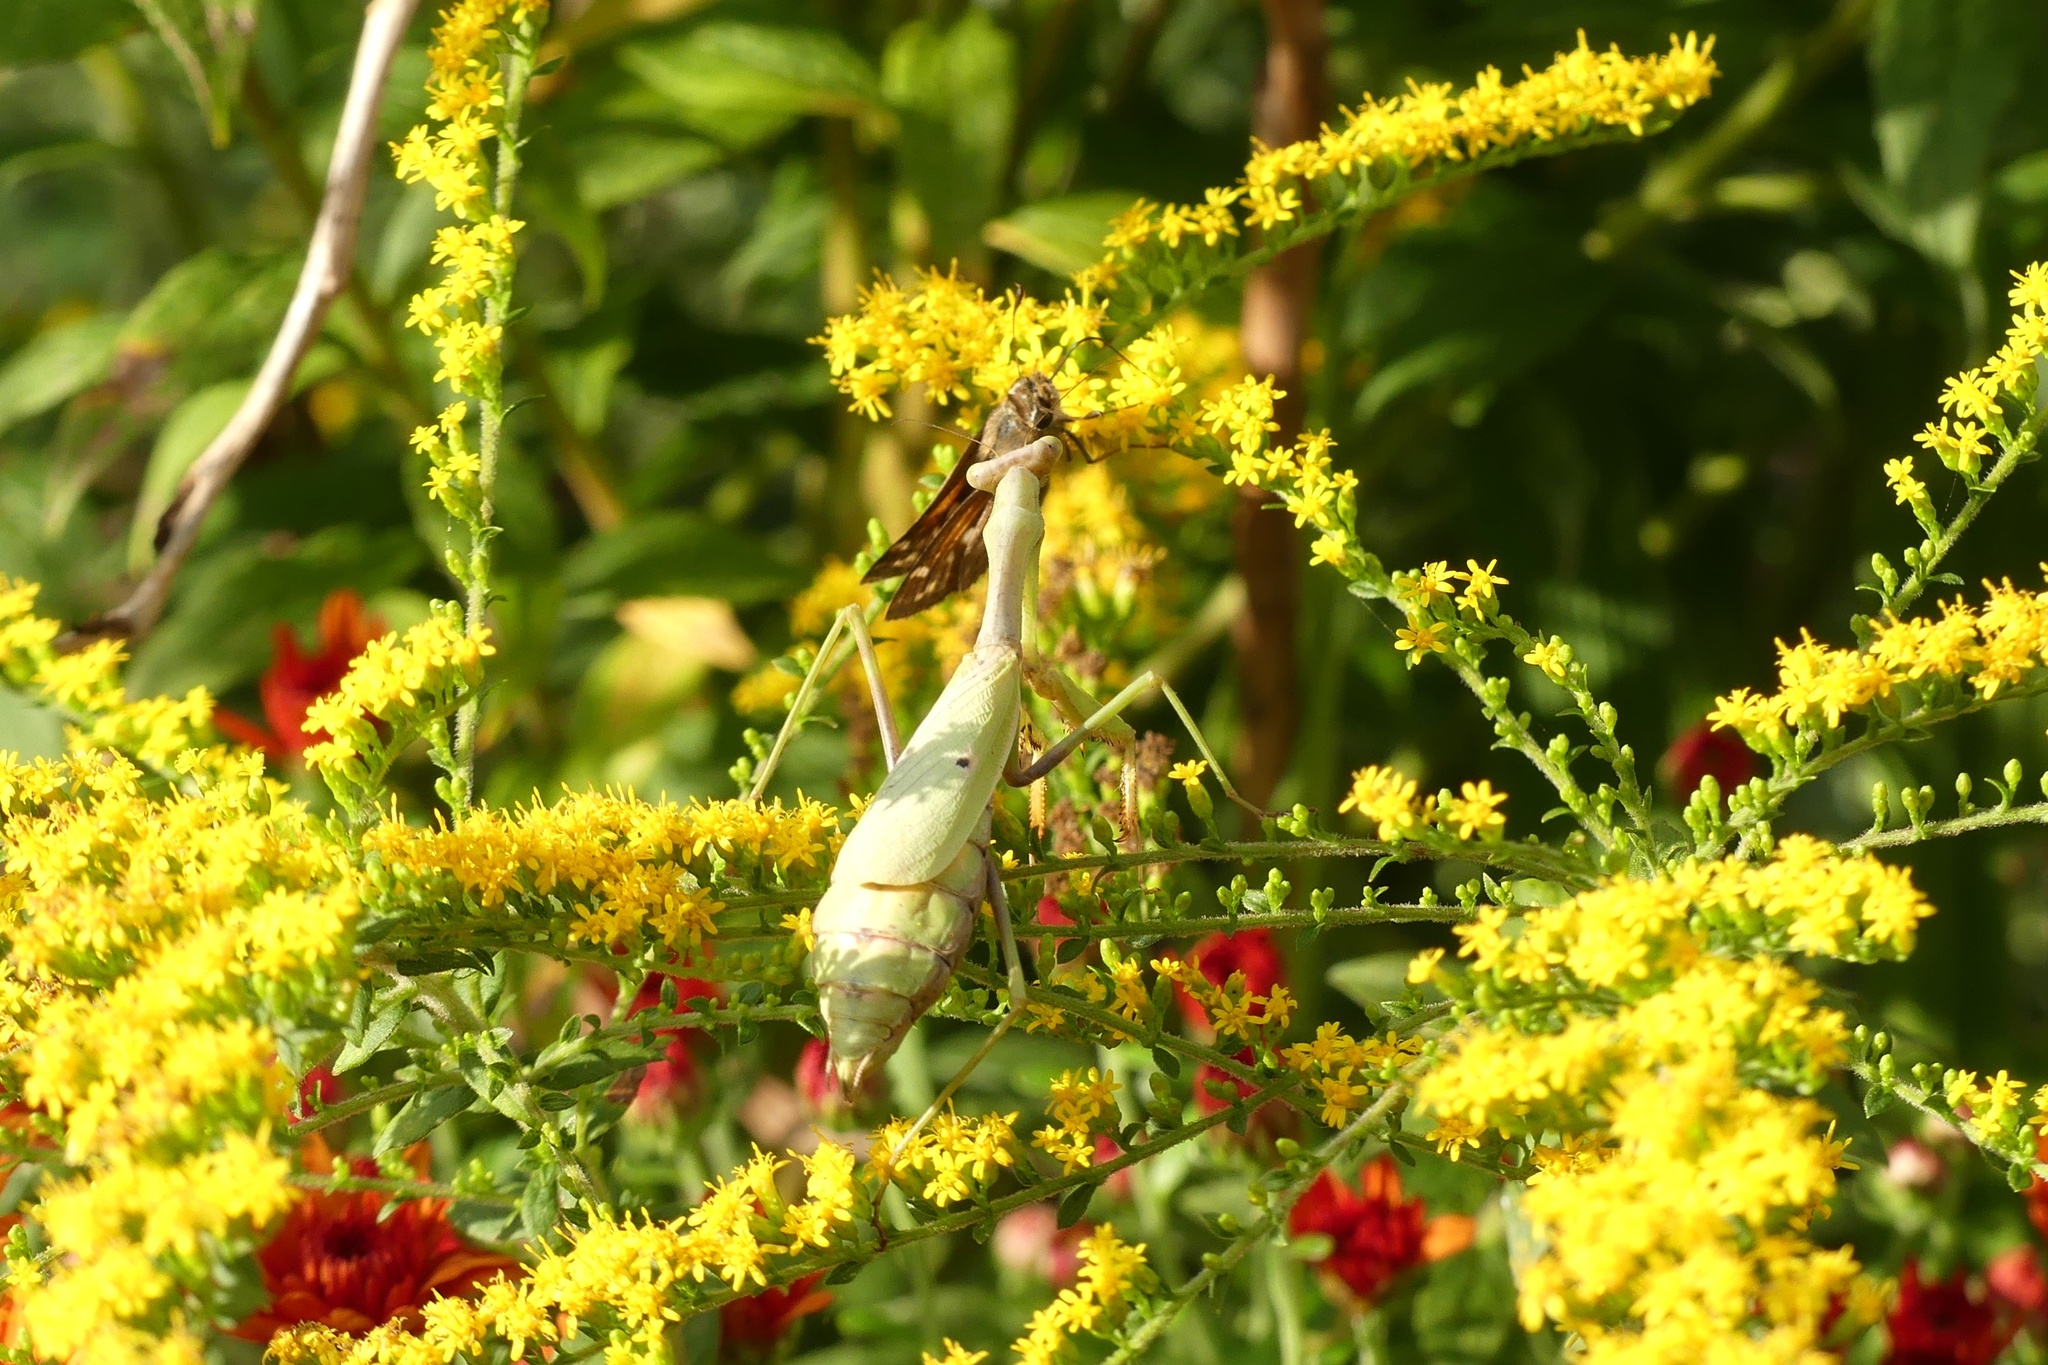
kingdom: Animalia
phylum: Arthropoda
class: Insecta
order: Mantodea
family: Mantidae
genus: Stagmomantis
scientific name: Stagmomantis carolina
